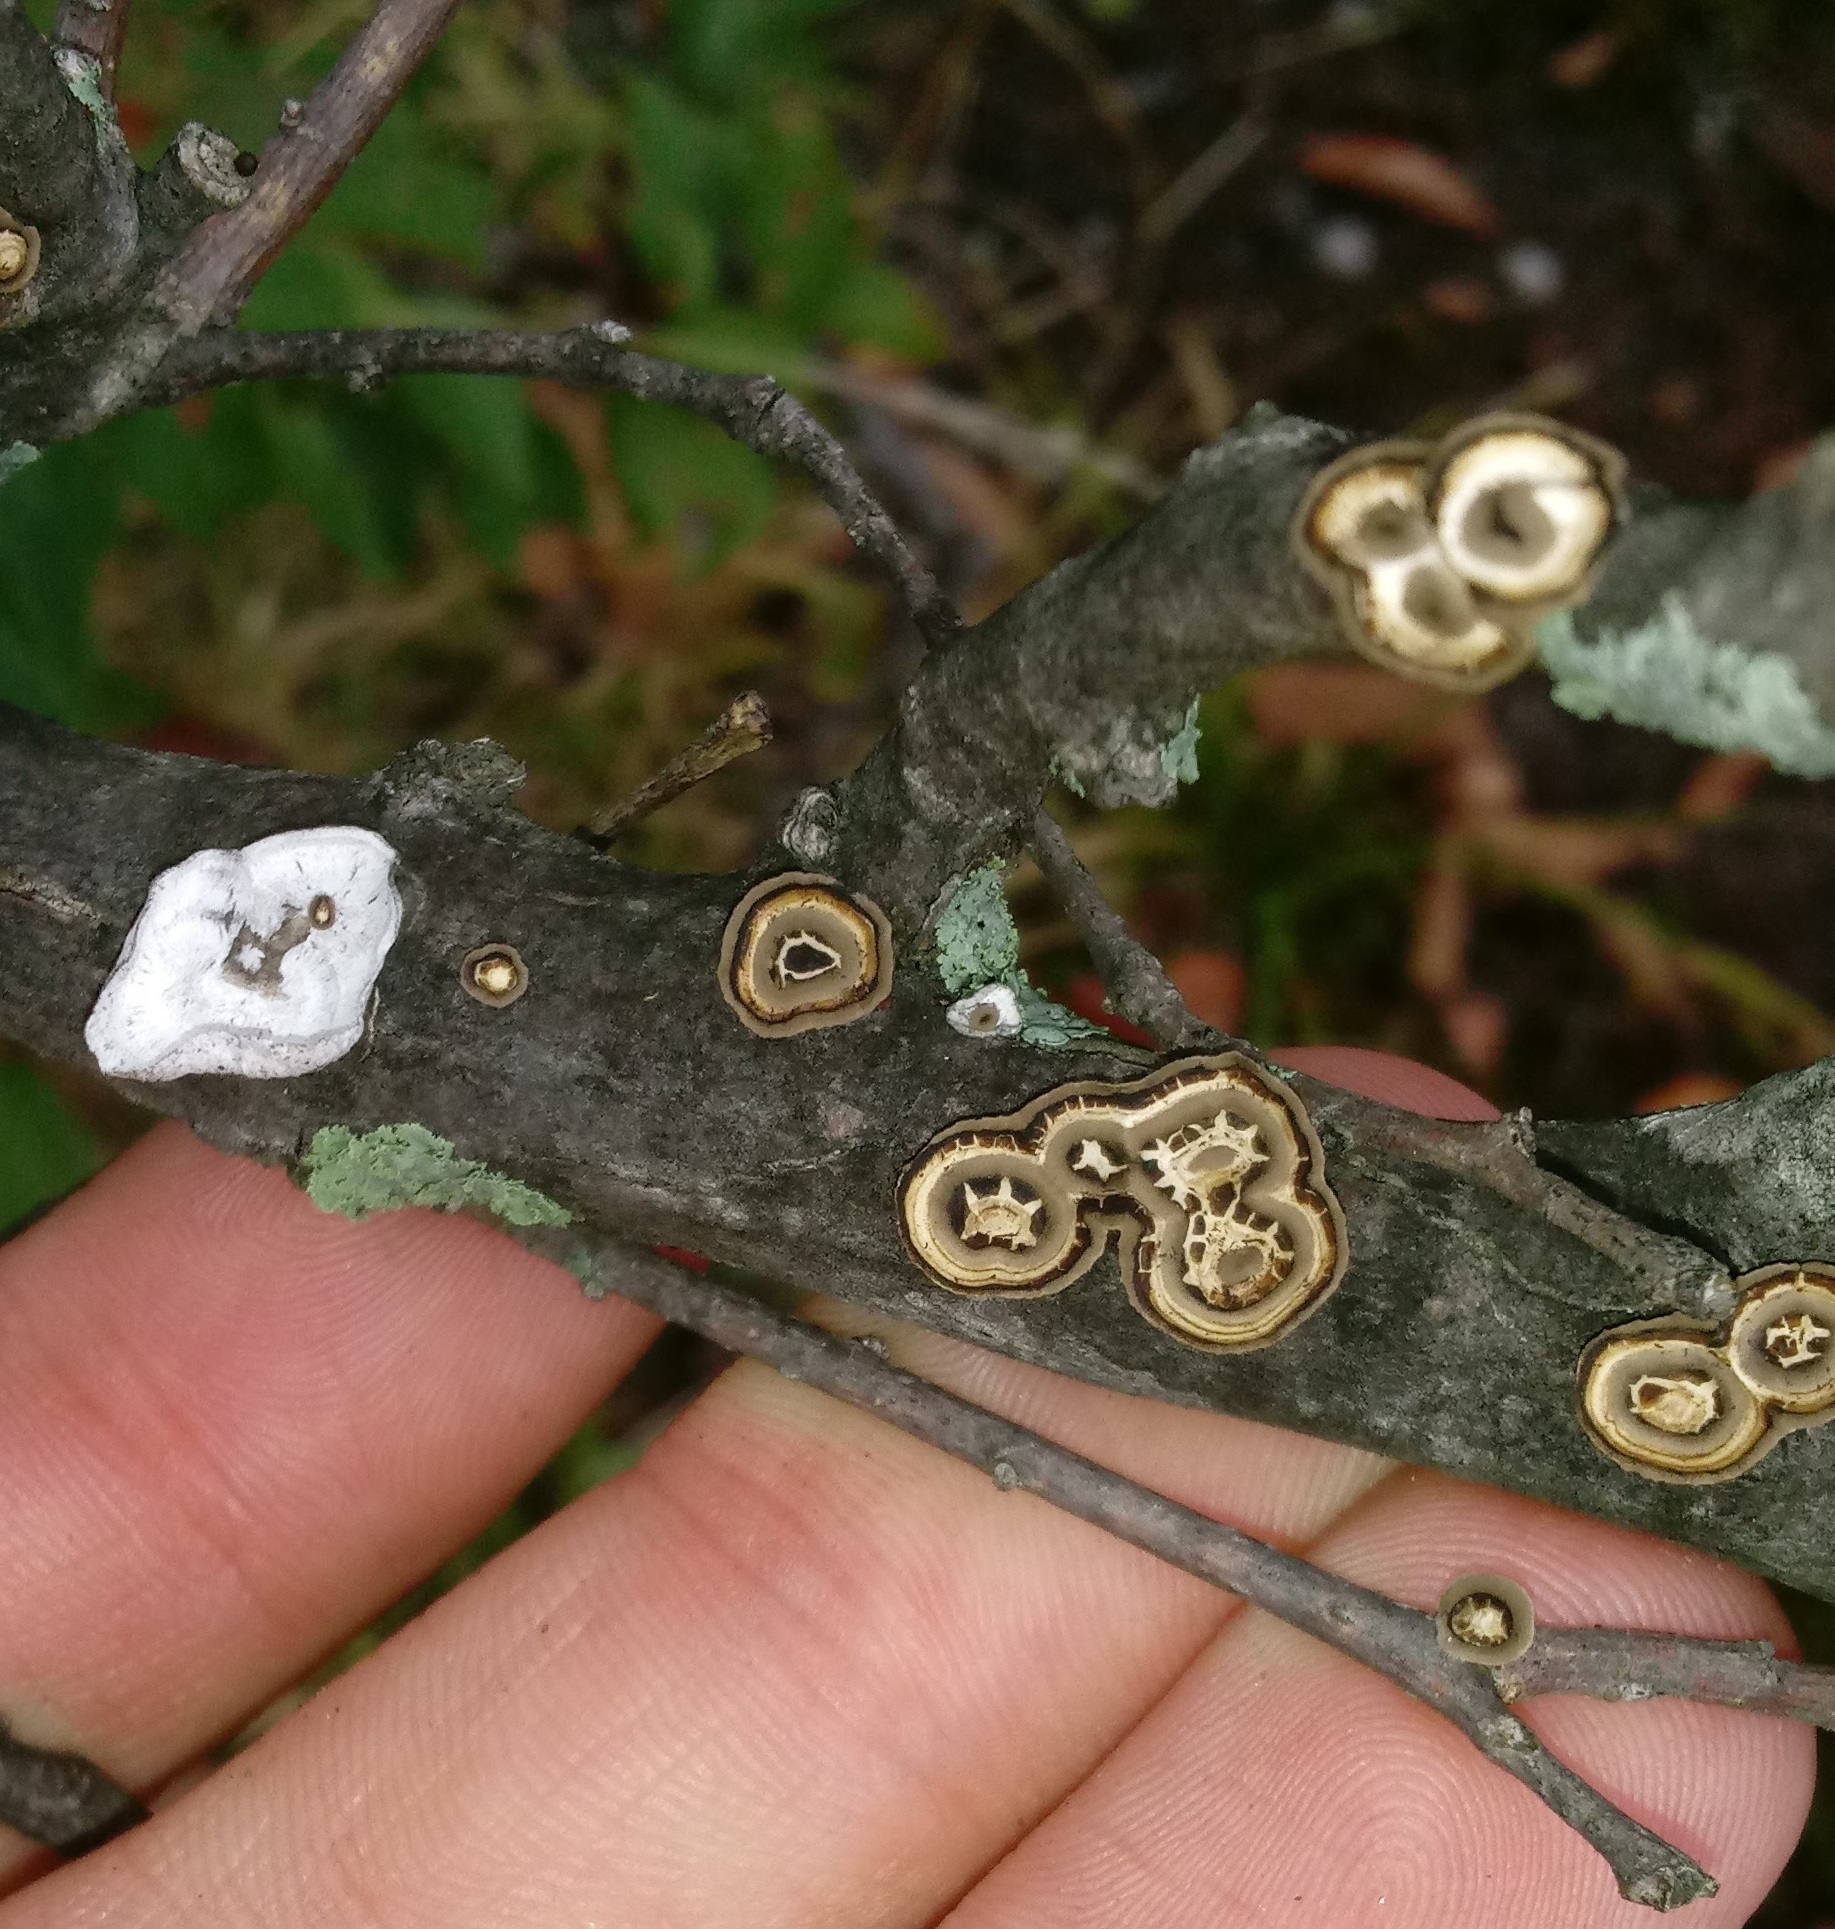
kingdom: Fungi
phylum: Basidiomycota
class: Agaricomycetes
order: Polyporales
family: Polyporaceae
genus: Poronidulus
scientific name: Poronidulus conchifer
